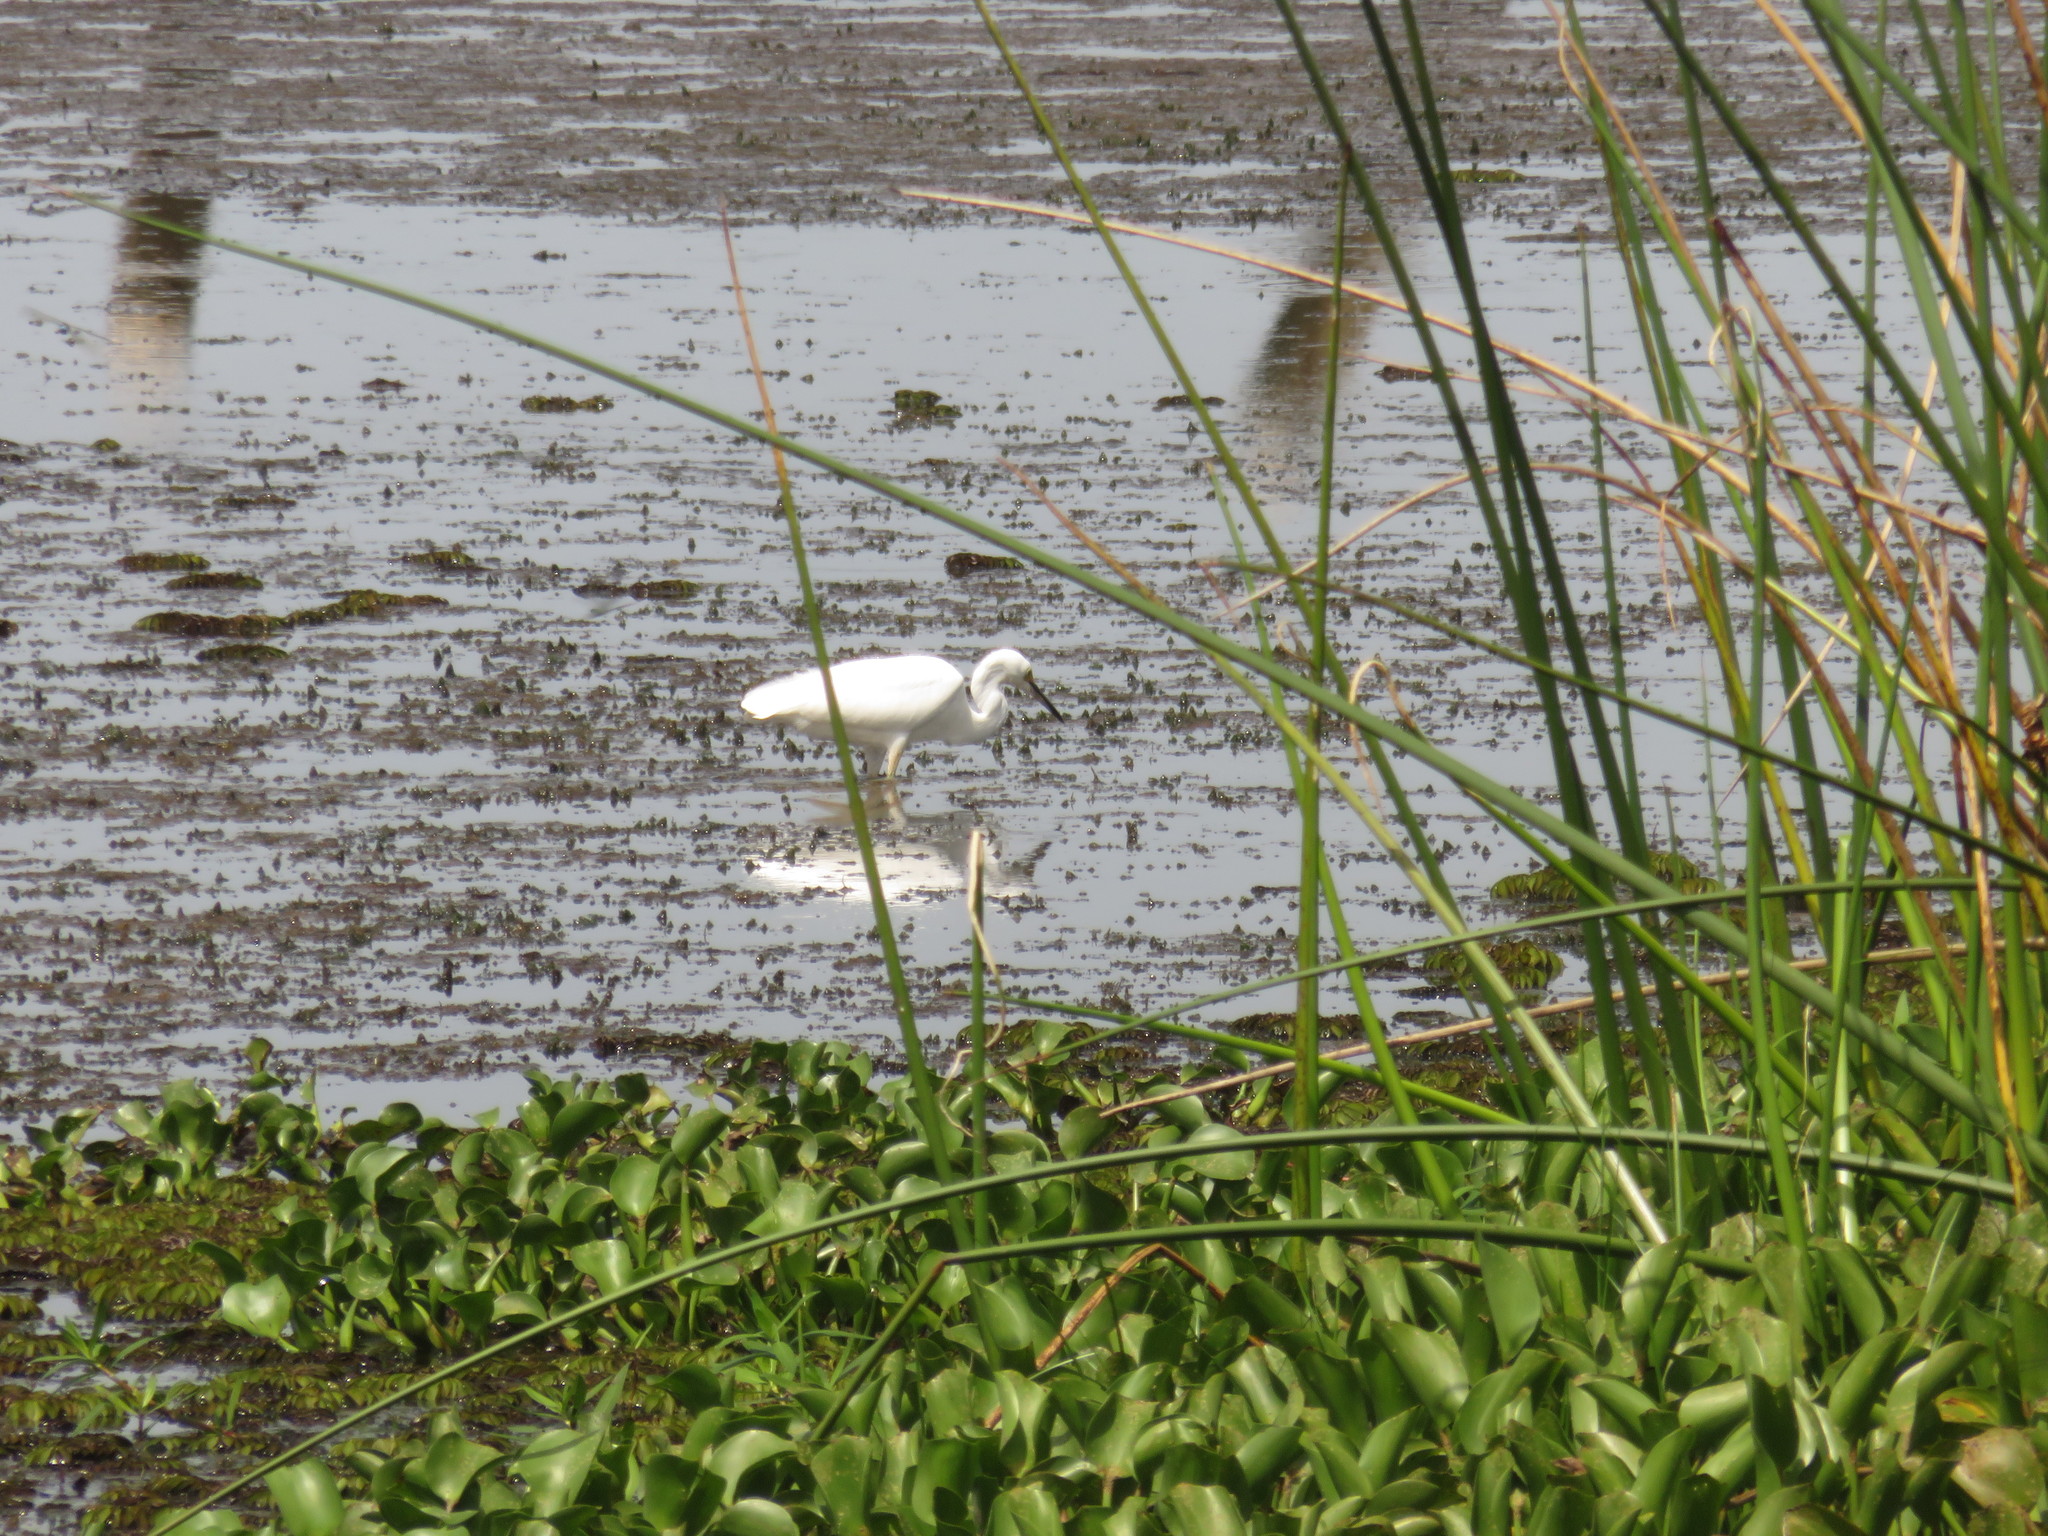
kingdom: Animalia
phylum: Chordata
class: Aves
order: Pelecaniformes
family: Ardeidae
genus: Egretta
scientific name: Egretta thula
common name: Snowy egret
